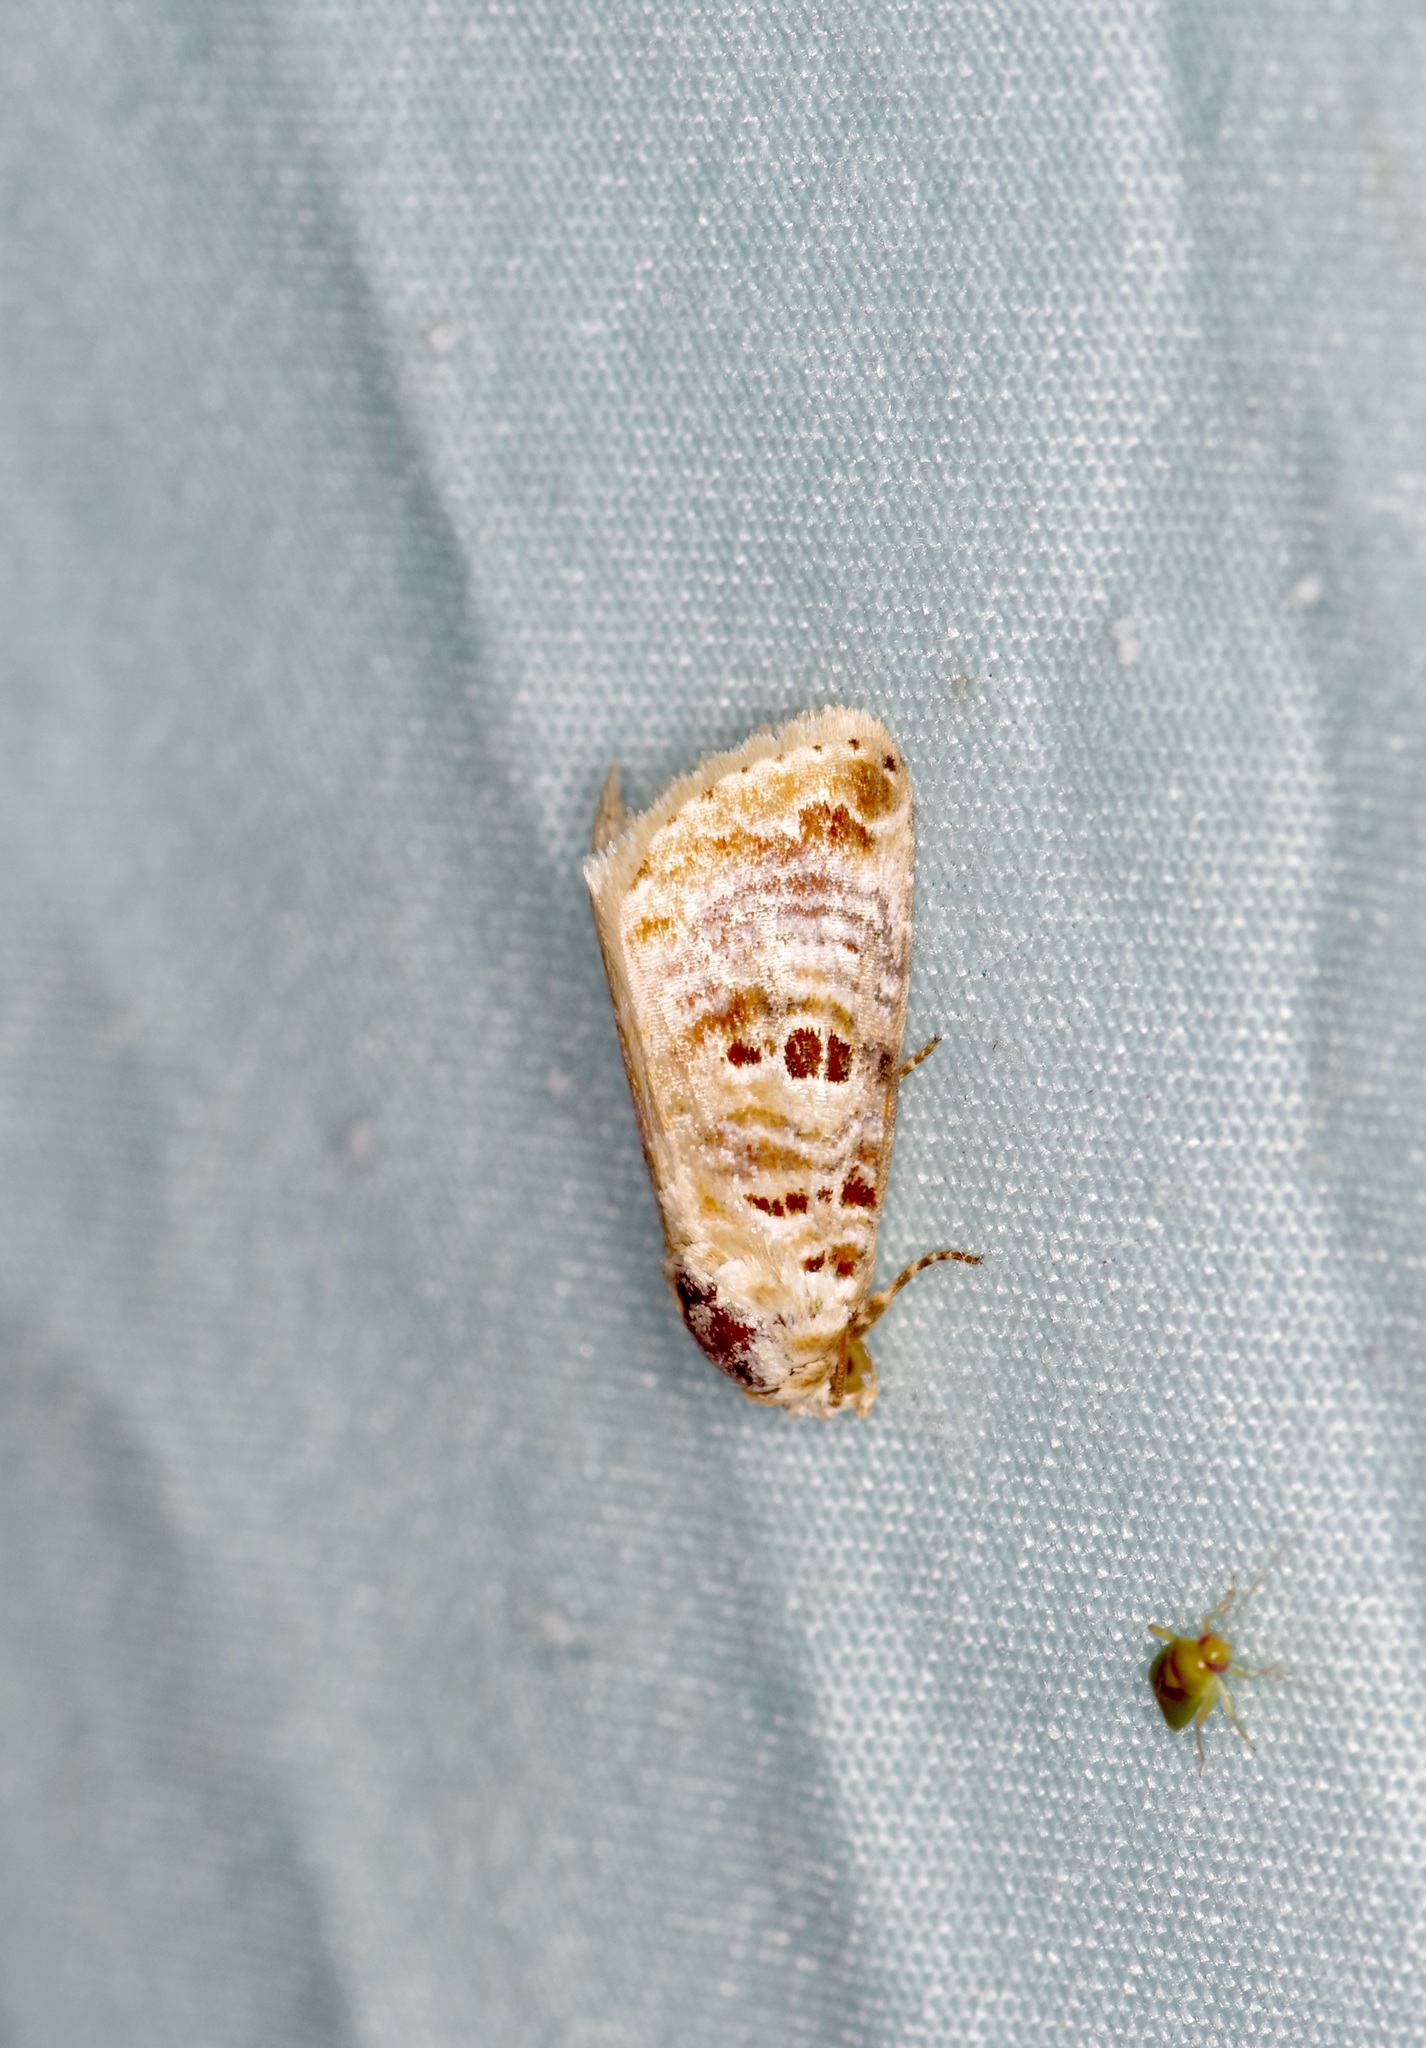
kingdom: Animalia
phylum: Arthropoda
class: Insecta
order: Lepidoptera
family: Noctuidae
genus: Diastema
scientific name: Diastema tigris
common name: Lantana moth
